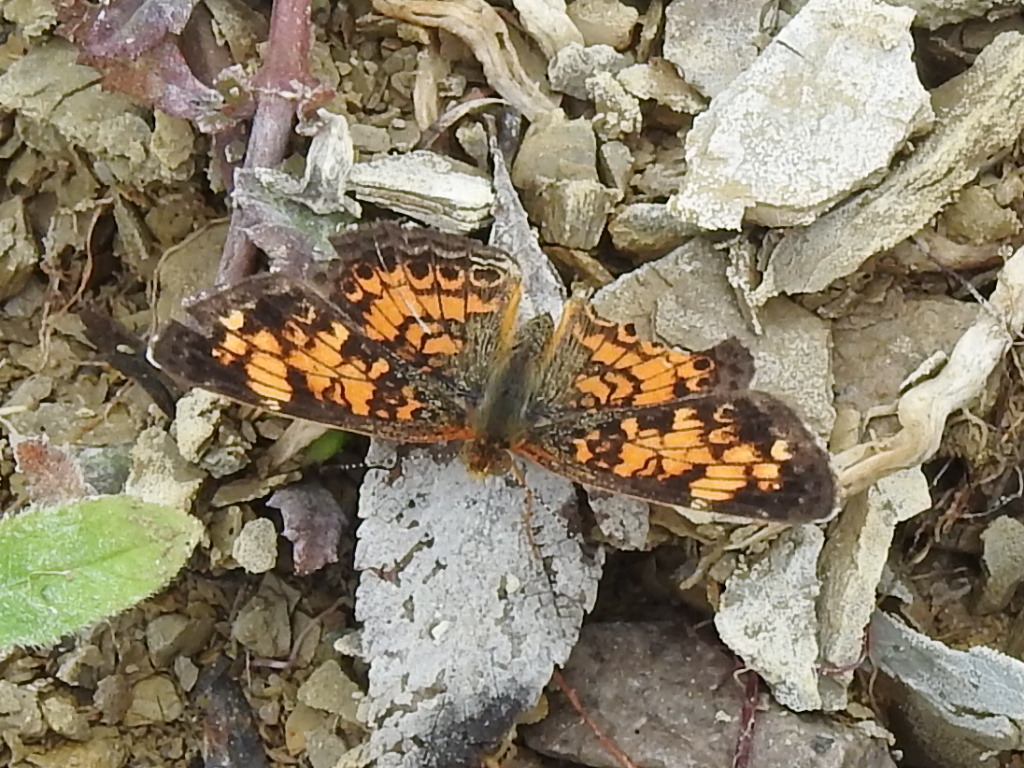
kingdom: Animalia
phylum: Arthropoda
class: Insecta
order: Lepidoptera
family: Nymphalidae
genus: Phyciodes
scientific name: Phyciodes tharos
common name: Pearl crescent
